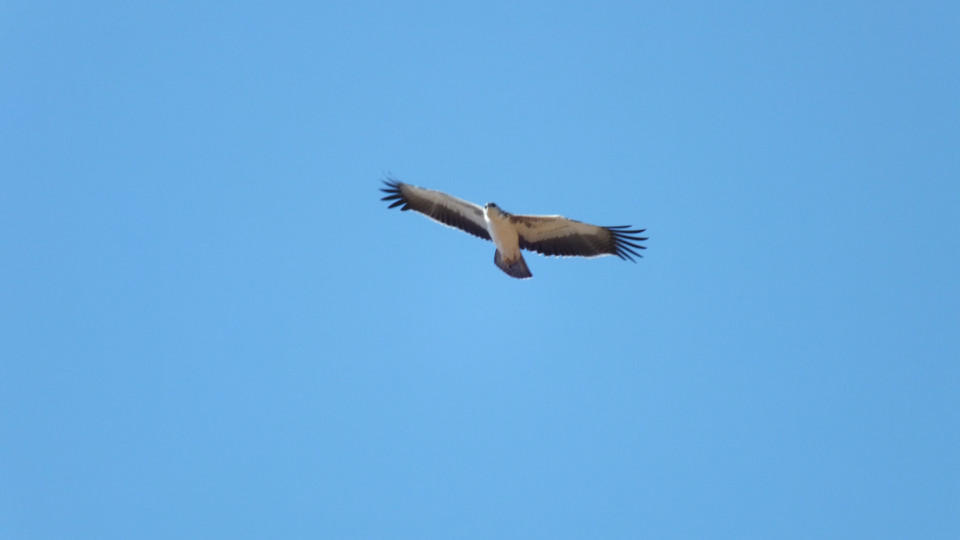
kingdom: Animalia
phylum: Chordata
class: Aves
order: Accipitriformes
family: Accipitridae
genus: Polemaetus
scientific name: Polemaetus bellicosus
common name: Martial eagle
